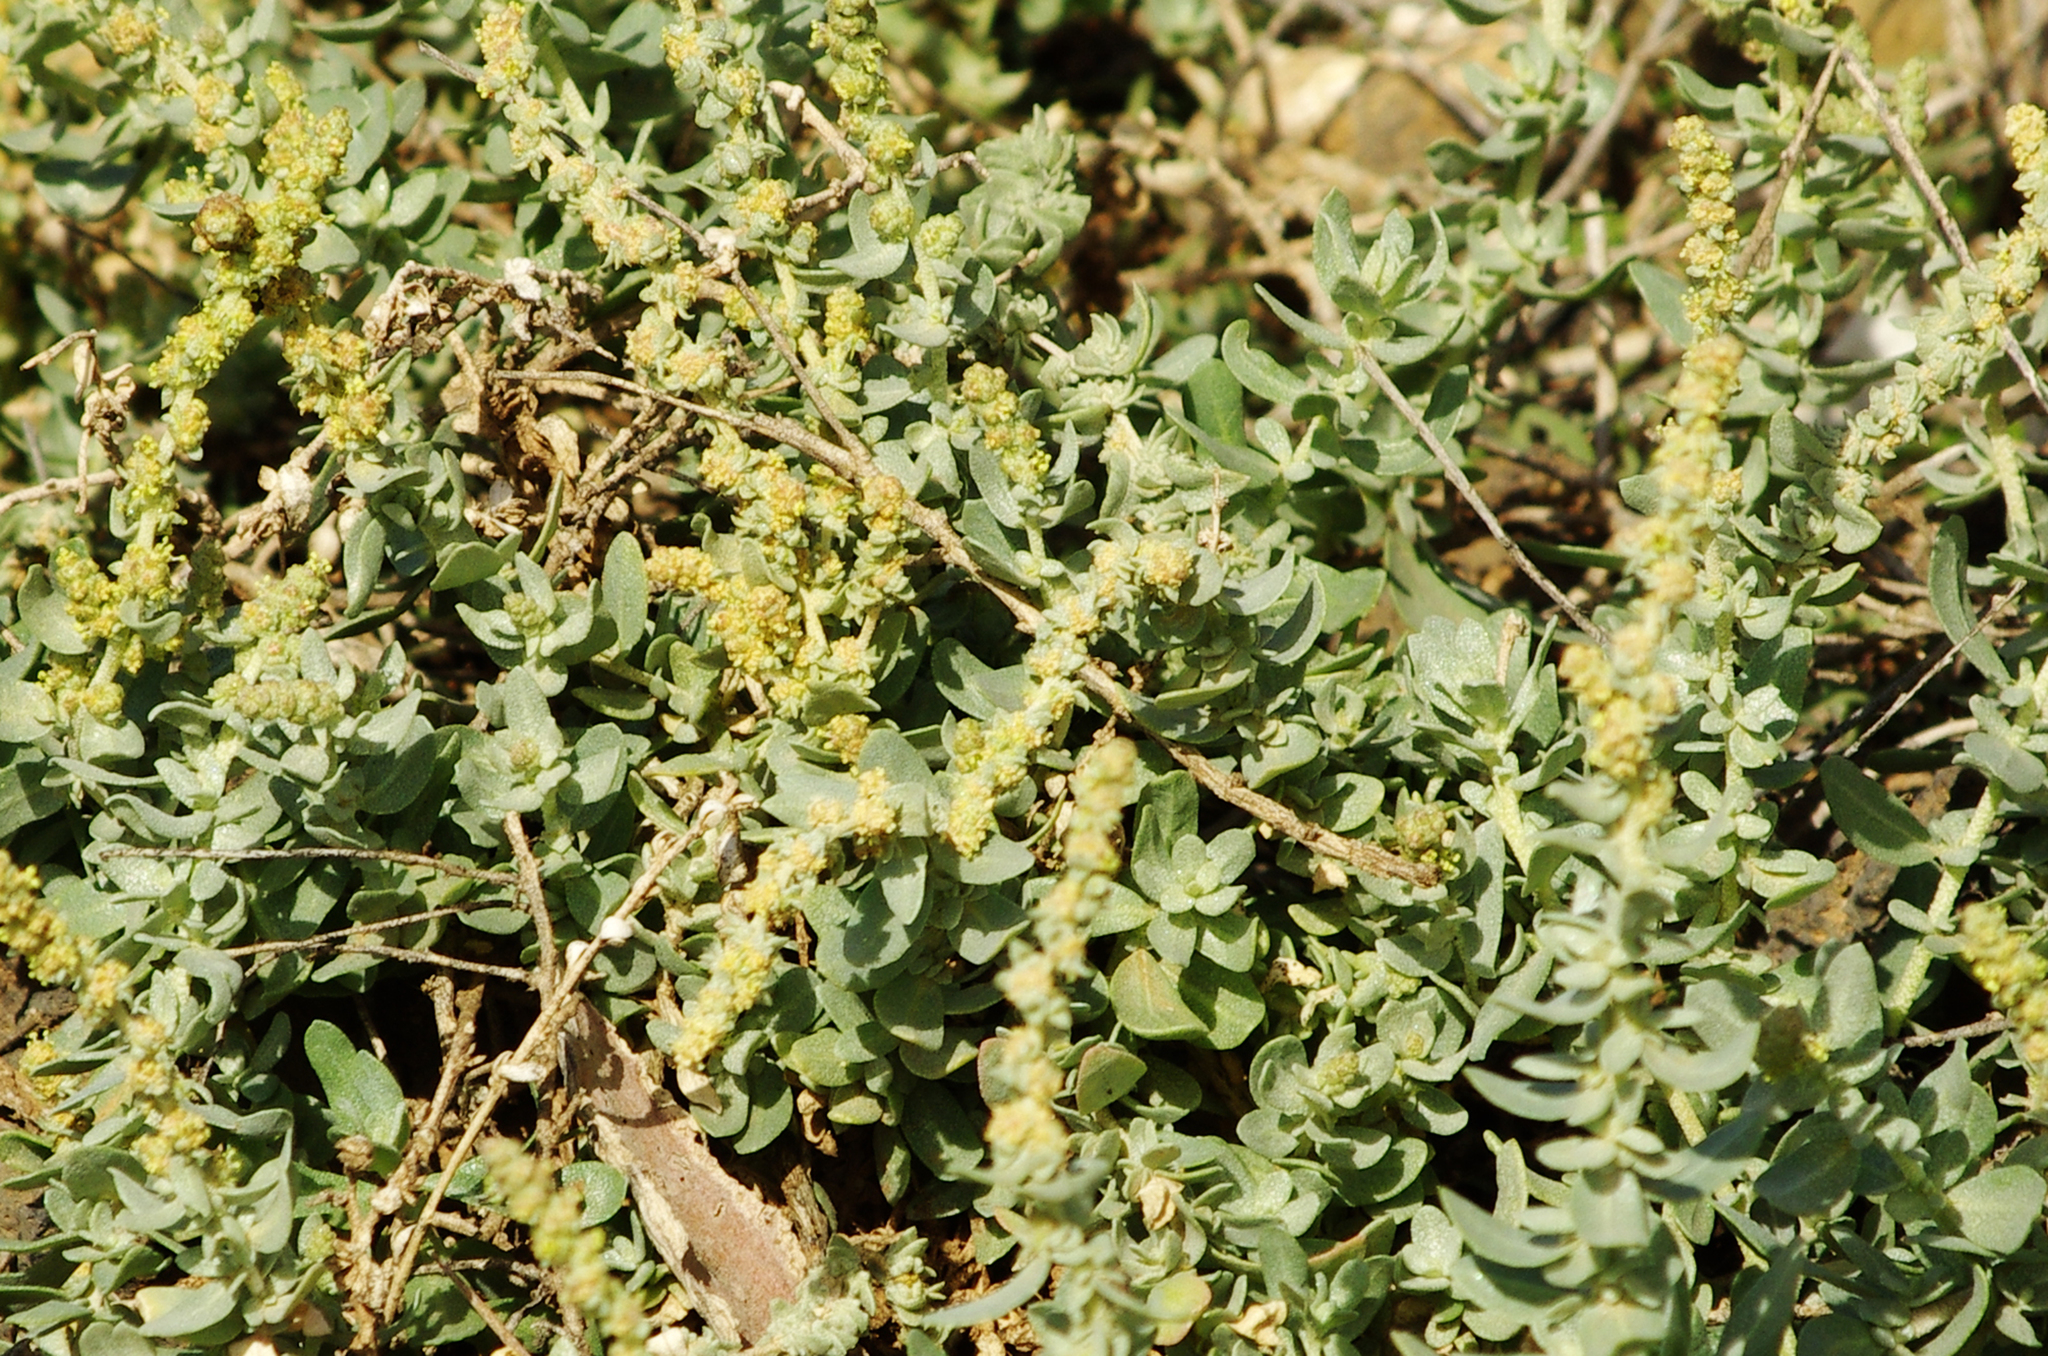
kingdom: Plantae
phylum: Tracheophyta
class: Magnoliopsida
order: Caryophyllales
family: Amaranthaceae
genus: Atriplex
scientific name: Atriplex glauca
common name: Waxy saltbush
